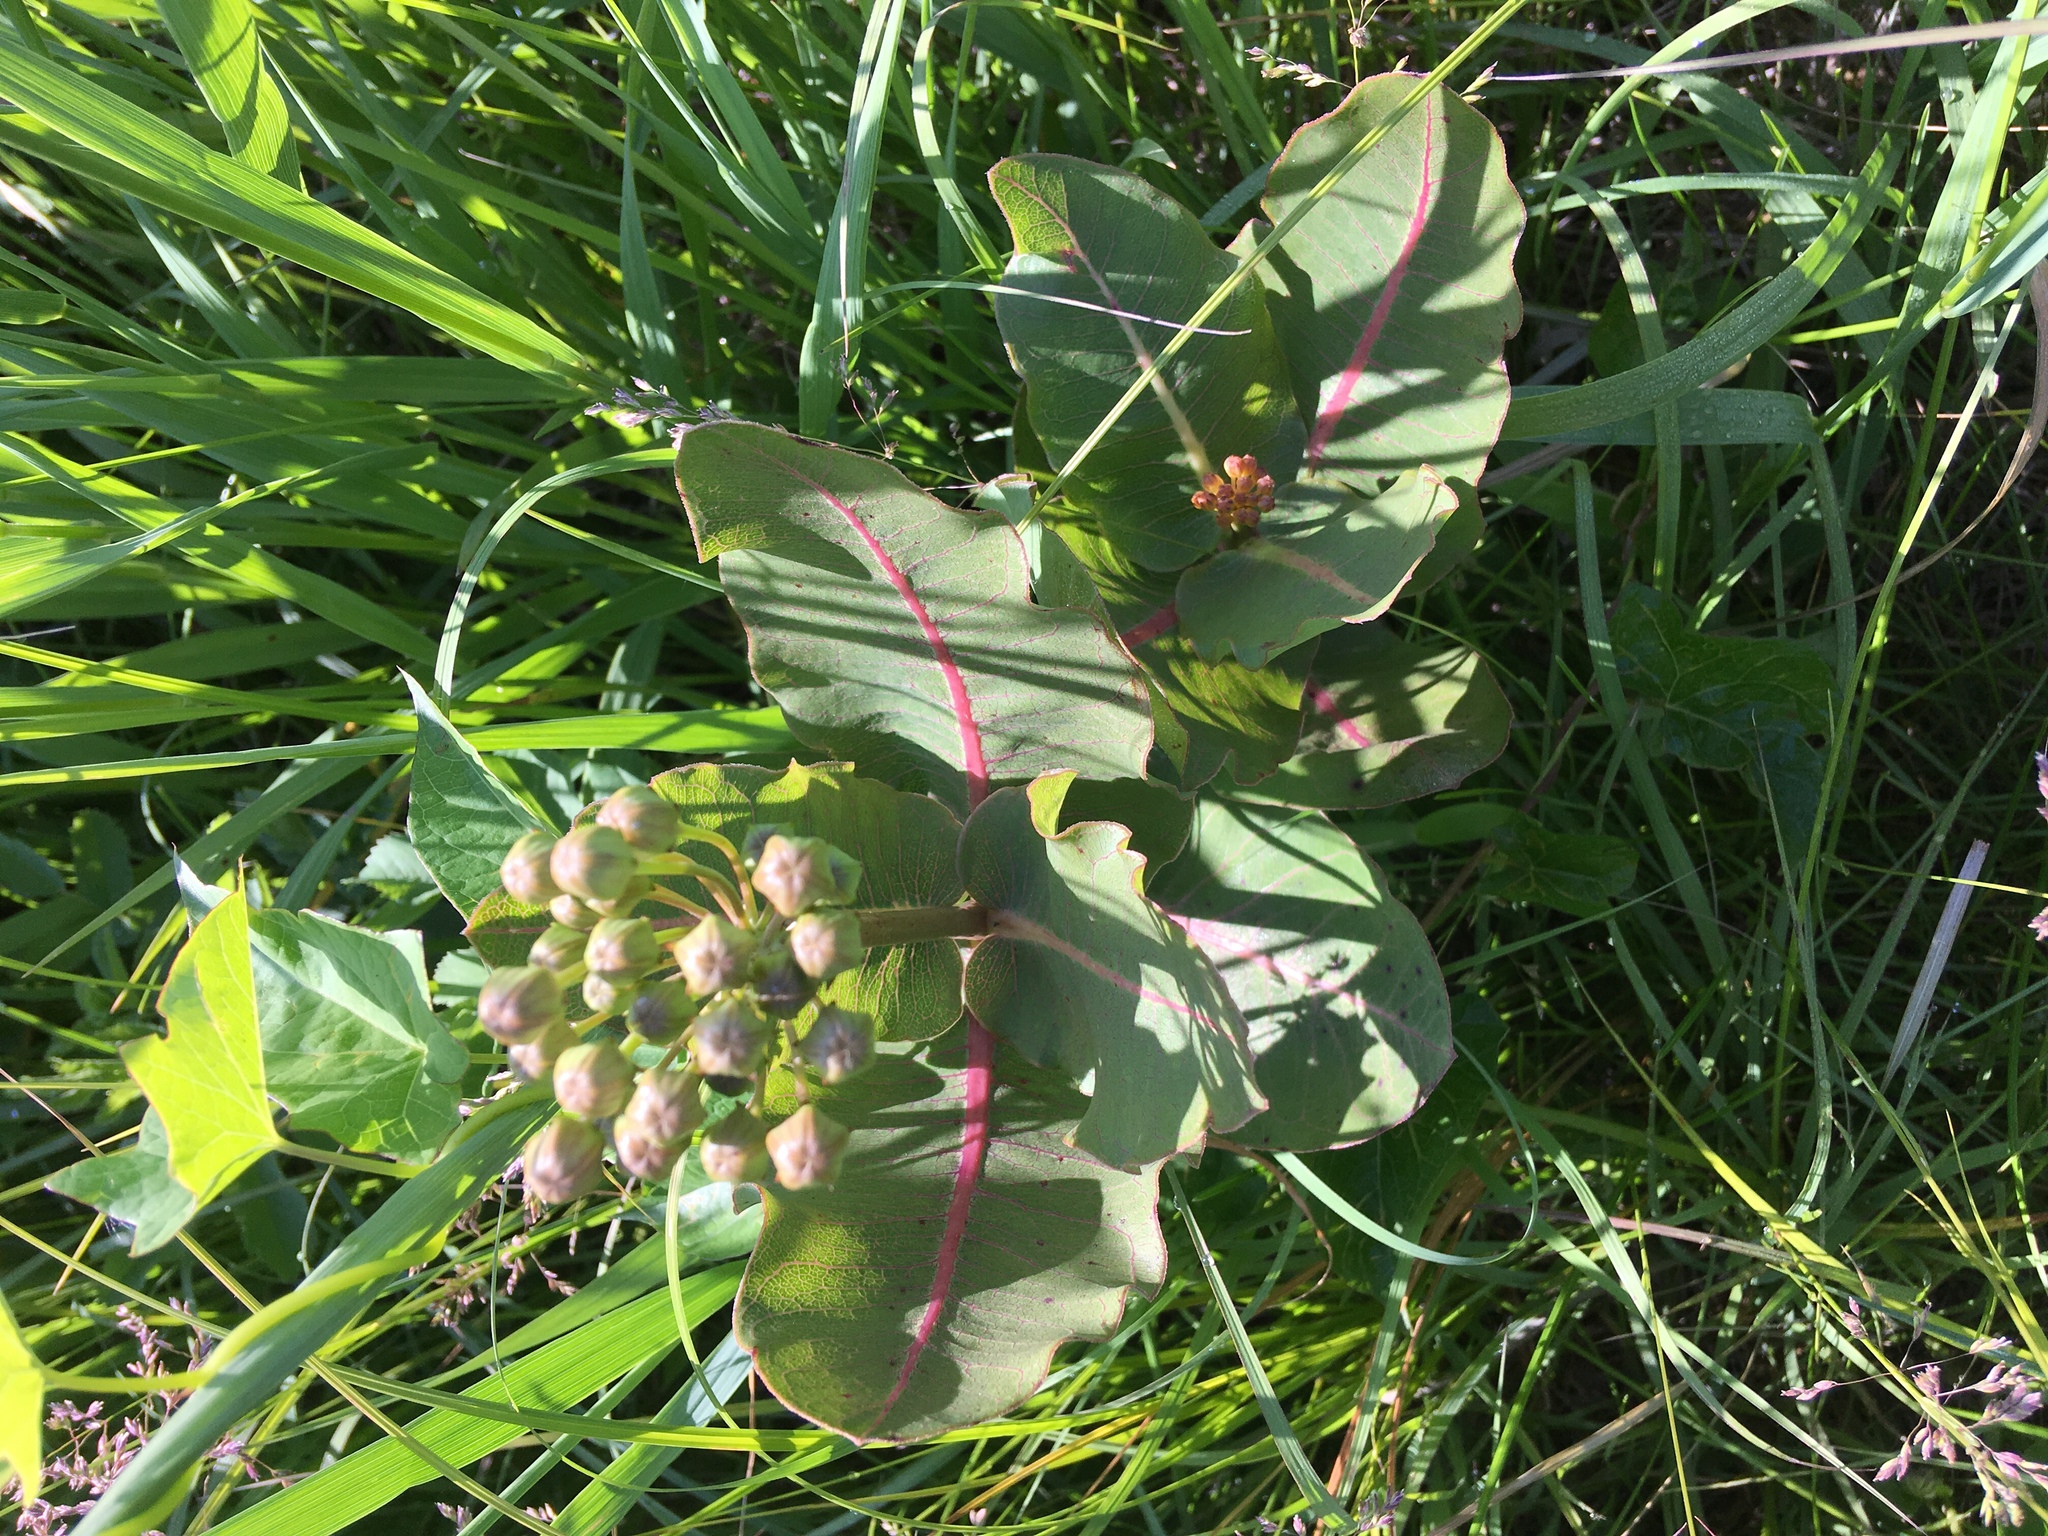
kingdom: Plantae
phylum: Tracheophyta
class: Magnoliopsida
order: Gentianales
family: Apocynaceae
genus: Asclepias
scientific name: Asclepias amplexicaulis
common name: Blunt-leaf milkweed
